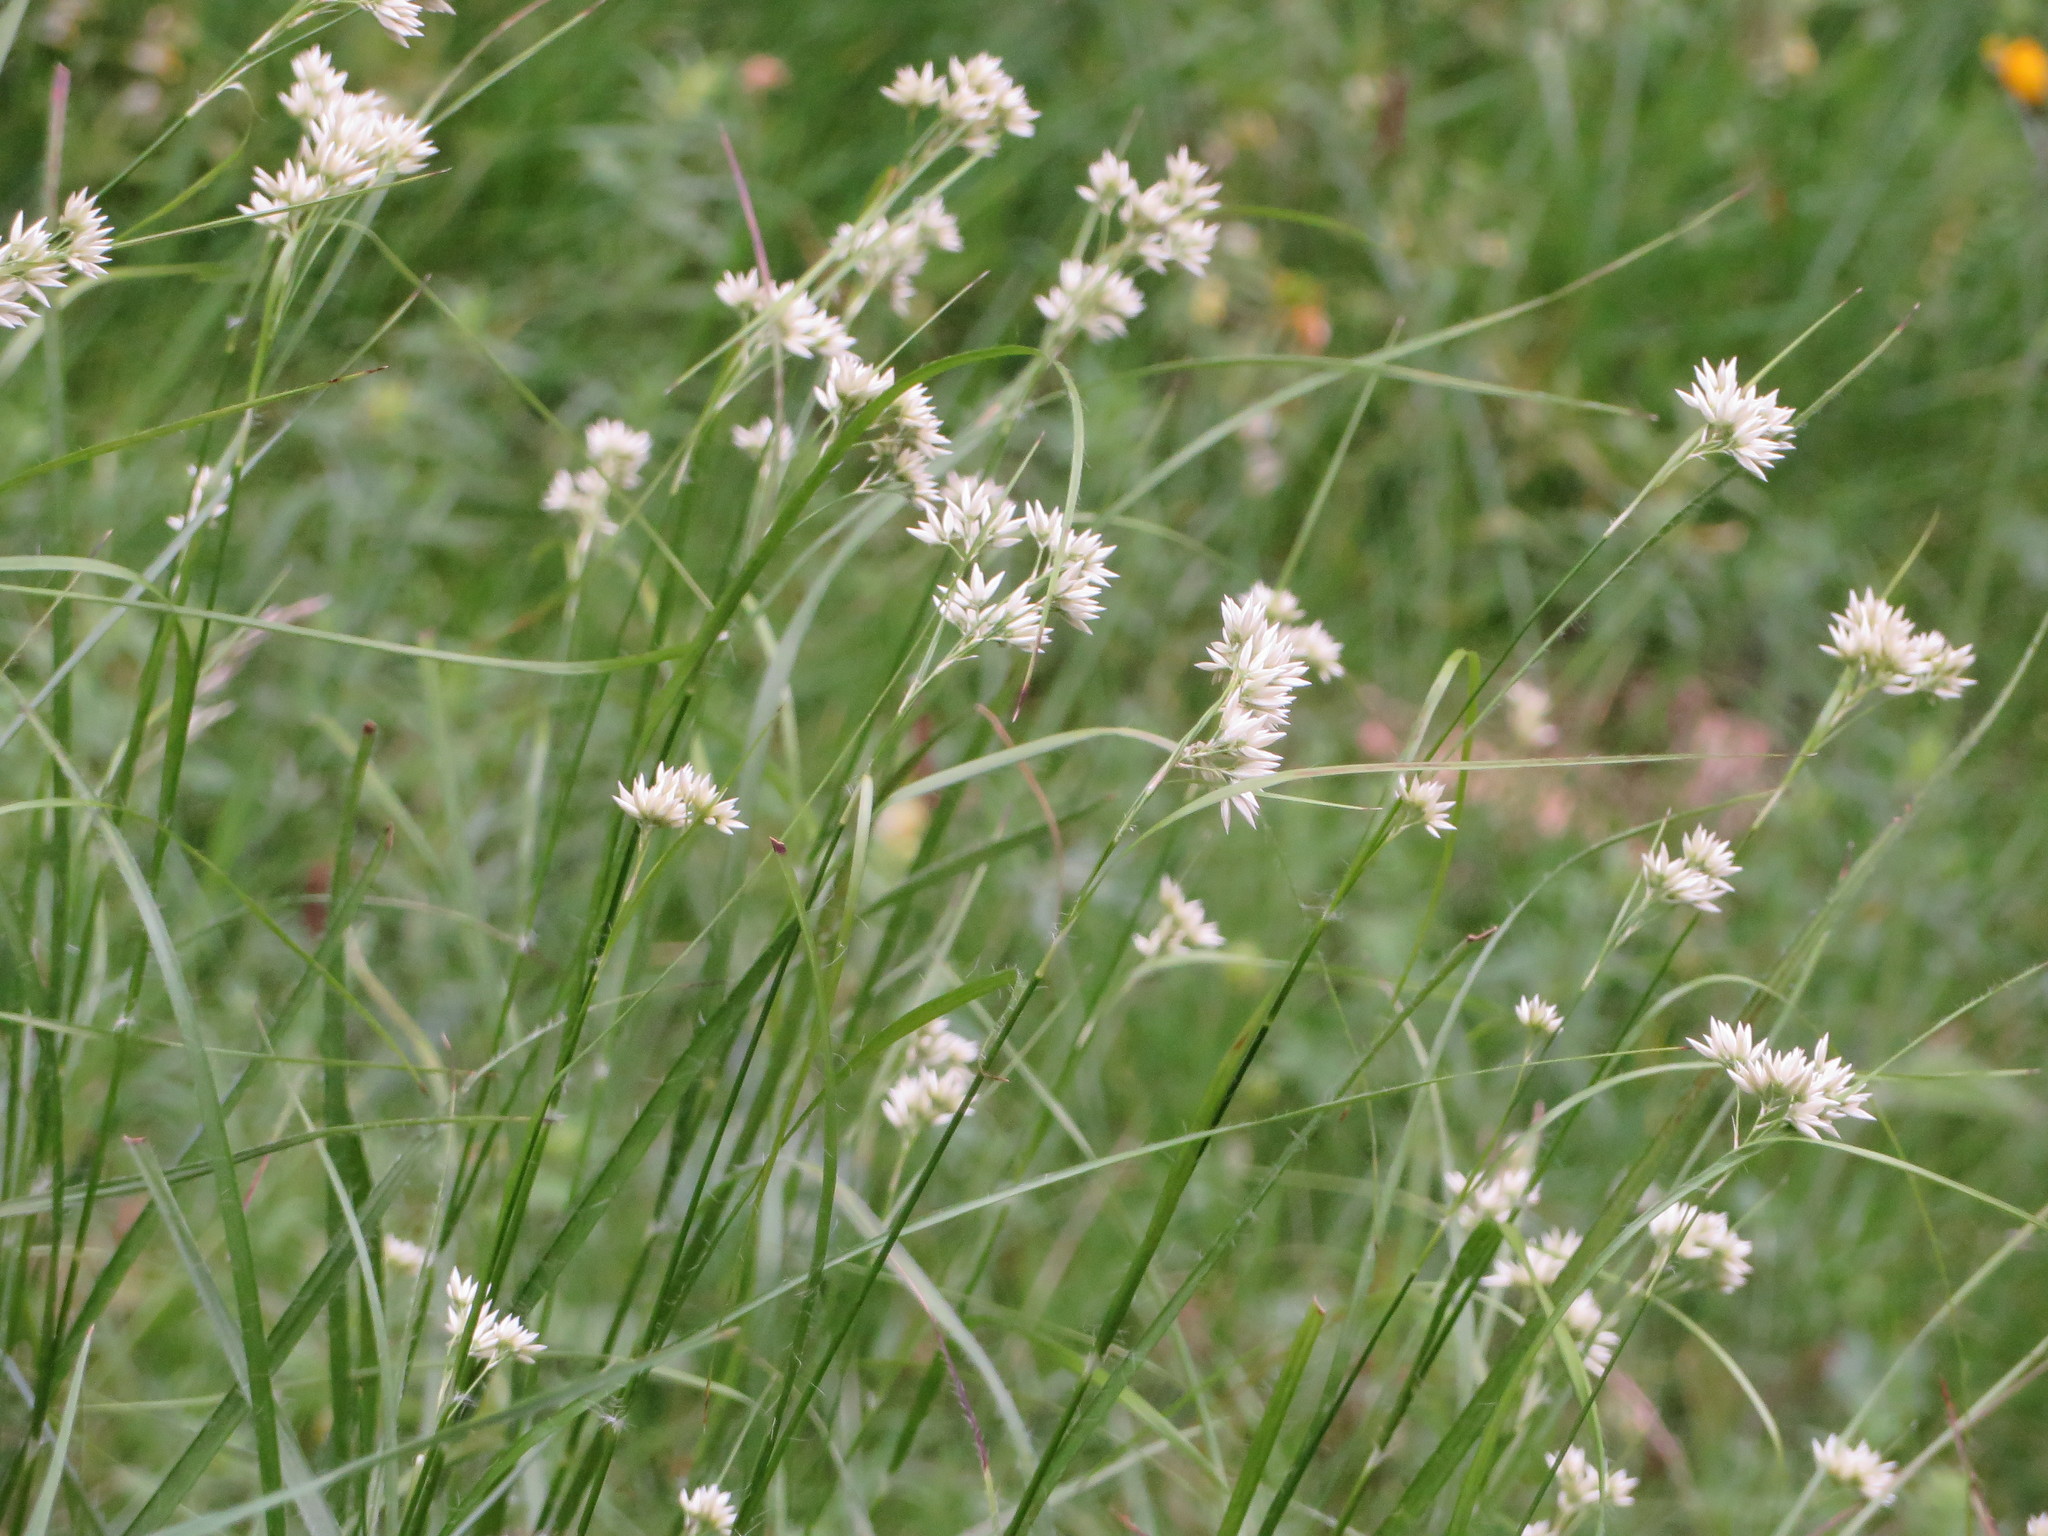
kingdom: Plantae
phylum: Tracheophyta
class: Liliopsida
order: Poales
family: Juncaceae
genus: Luzula
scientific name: Luzula nivea
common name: Snow-white wood-rush
